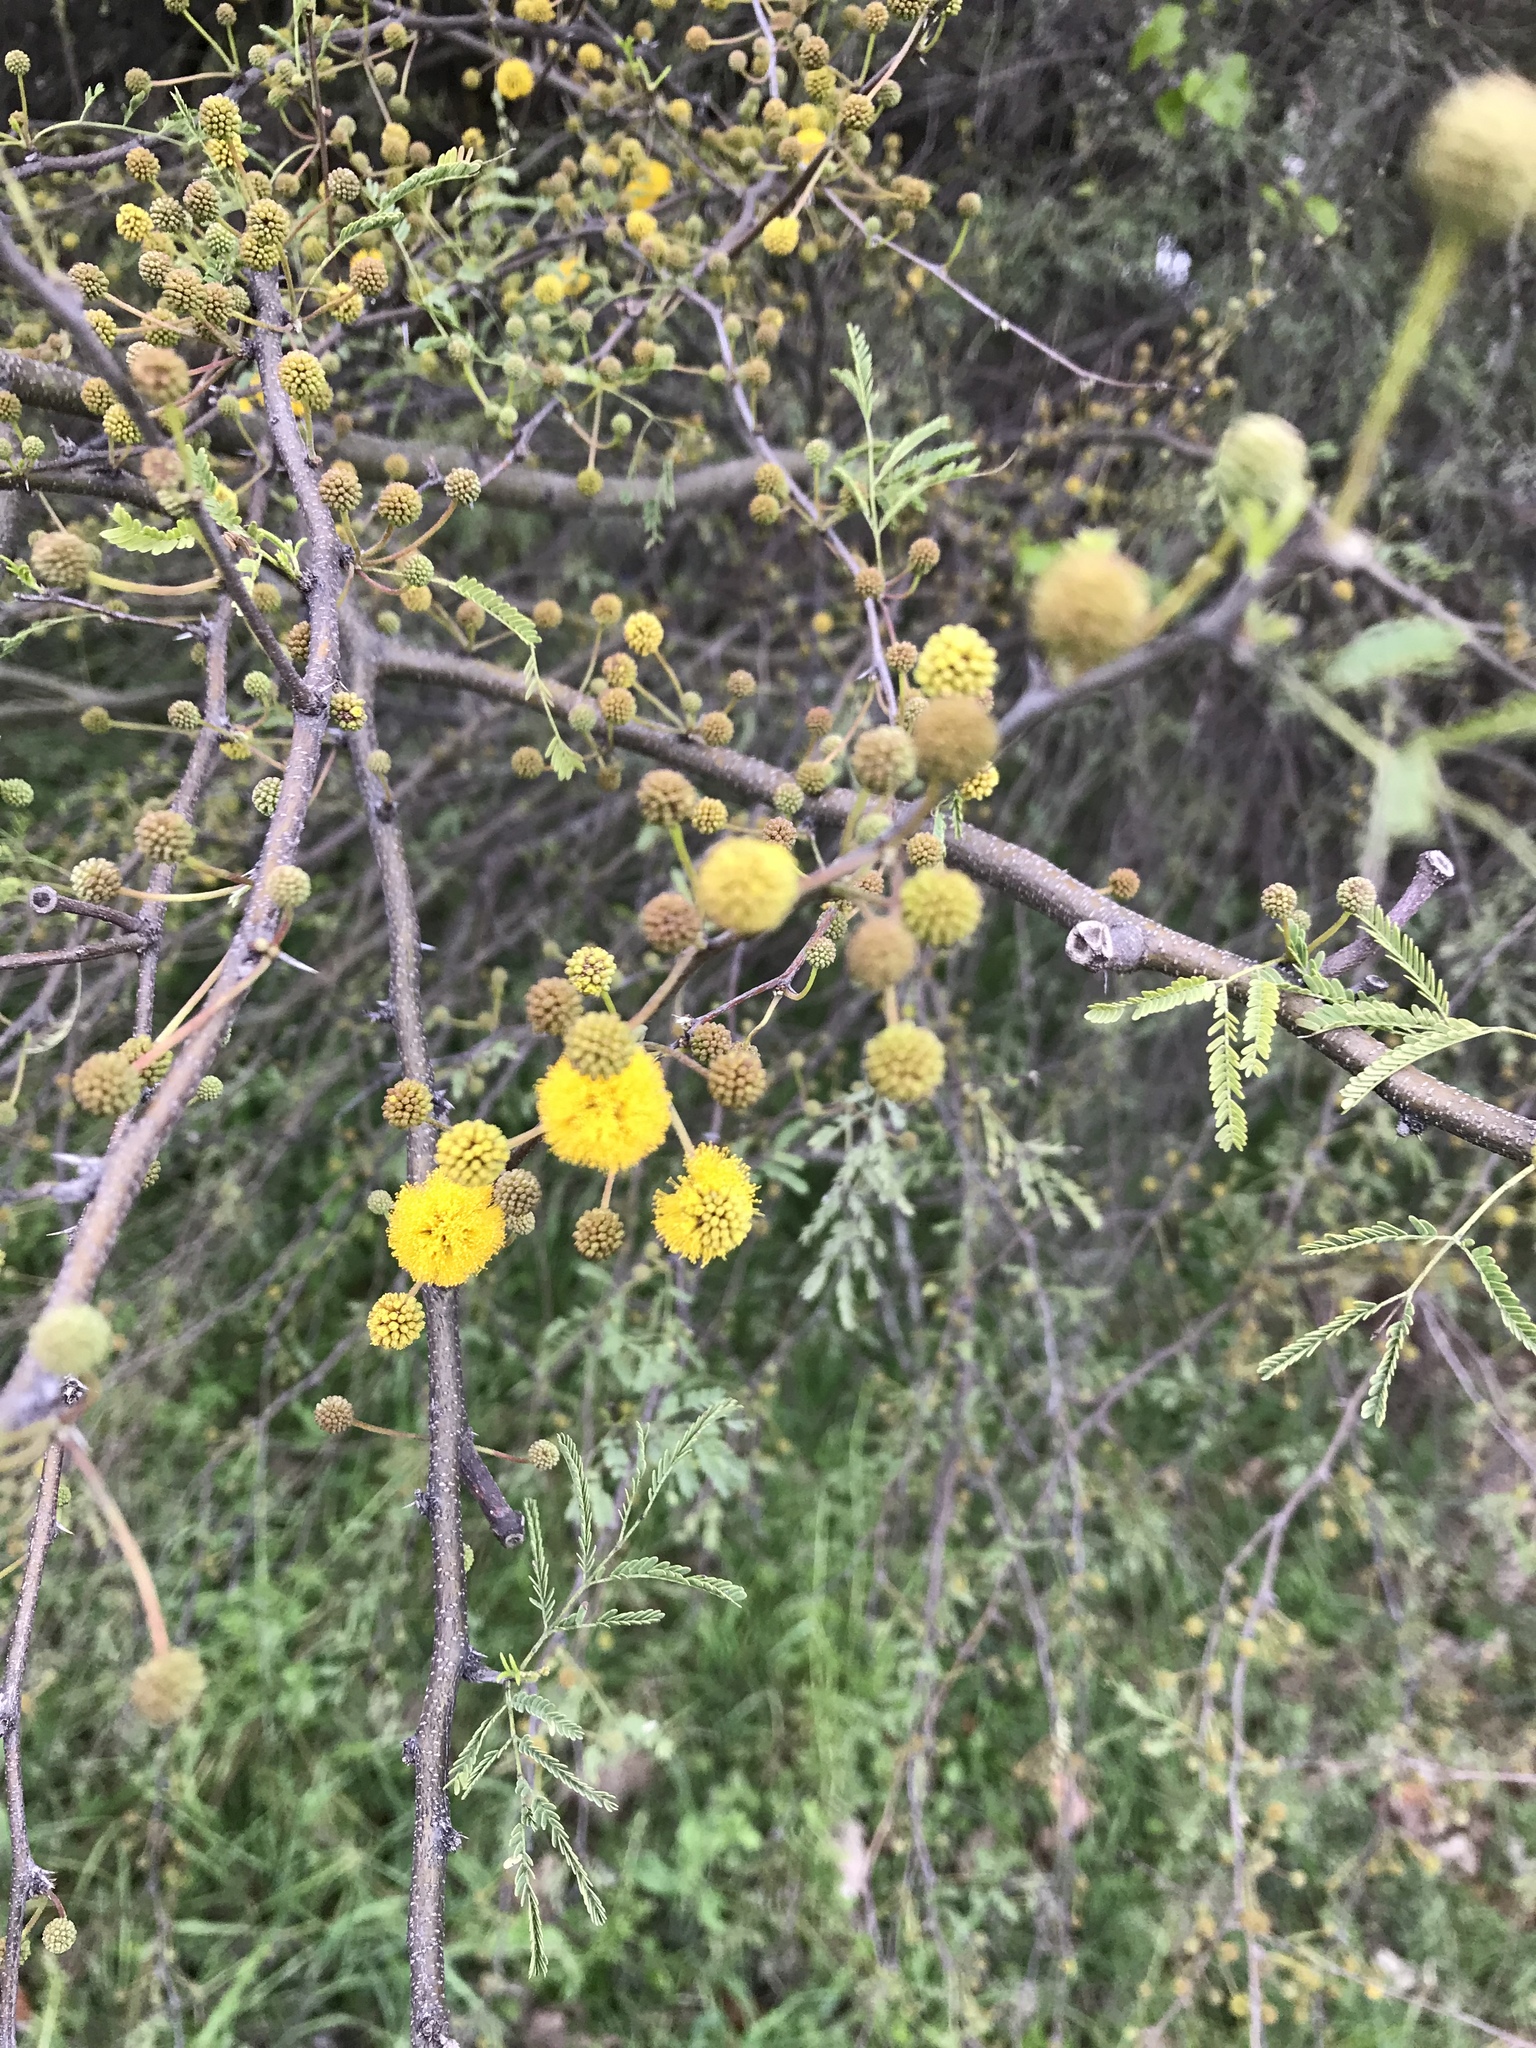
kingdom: Plantae
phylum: Tracheophyta
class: Magnoliopsida
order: Fabales
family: Fabaceae
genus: Vachellia
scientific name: Vachellia farnesiana
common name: Sweet acacia
